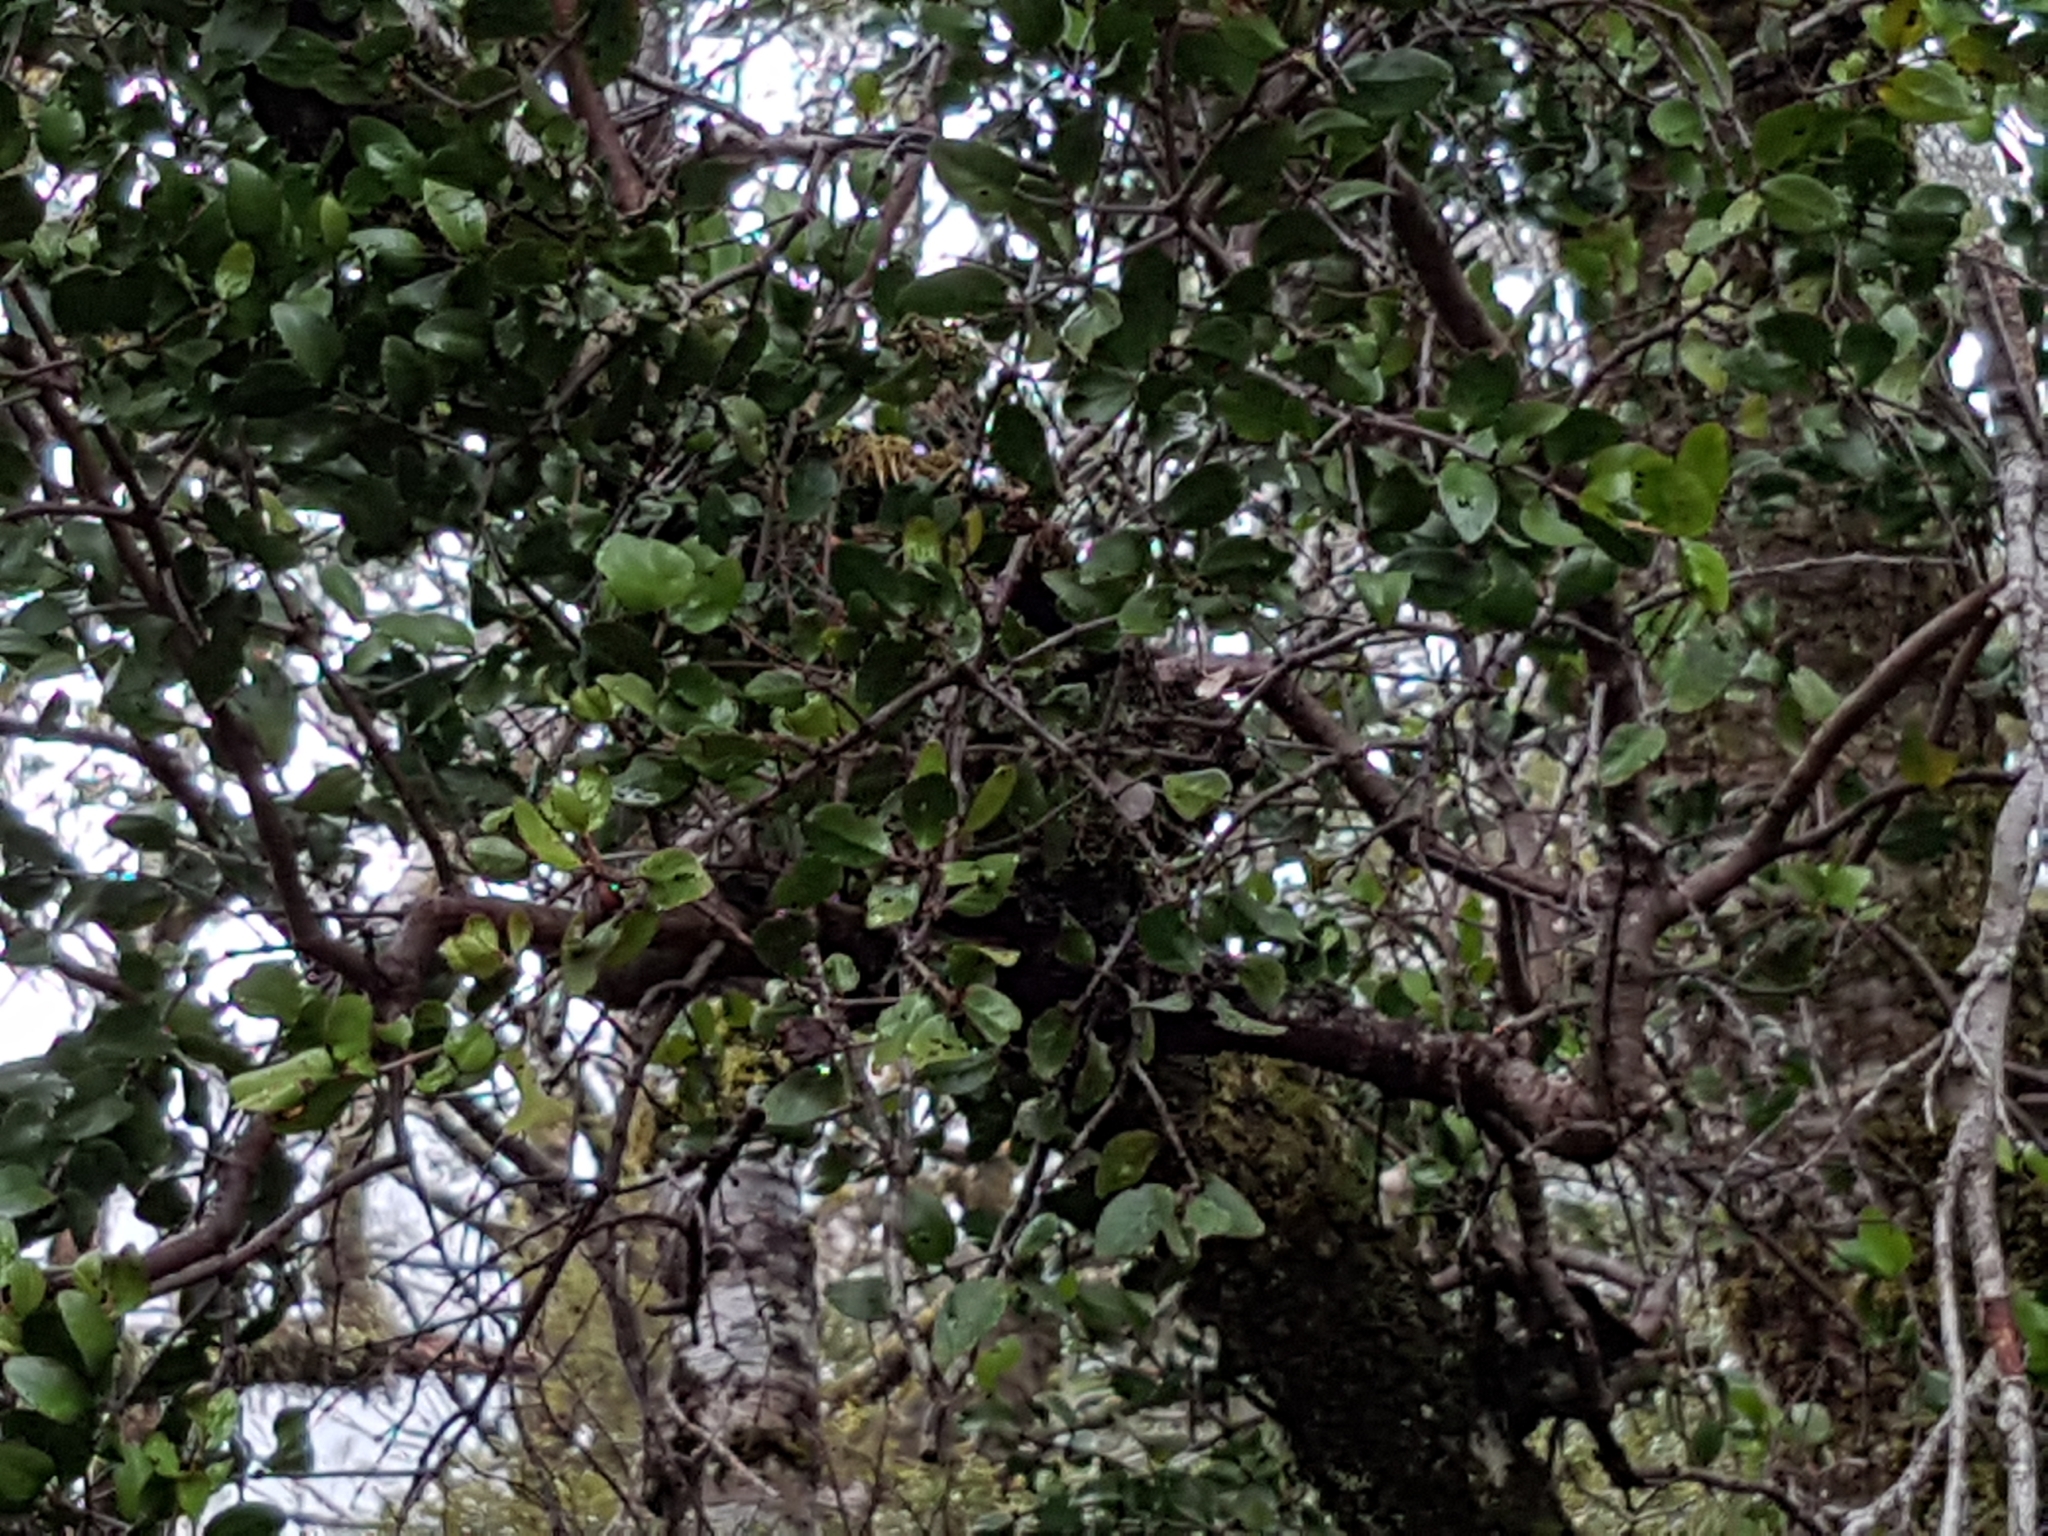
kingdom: Plantae
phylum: Tracheophyta
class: Magnoliopsida
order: Santalales
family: Loranthaceae
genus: Peraxilla
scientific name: Peraxilla tetrapetala
